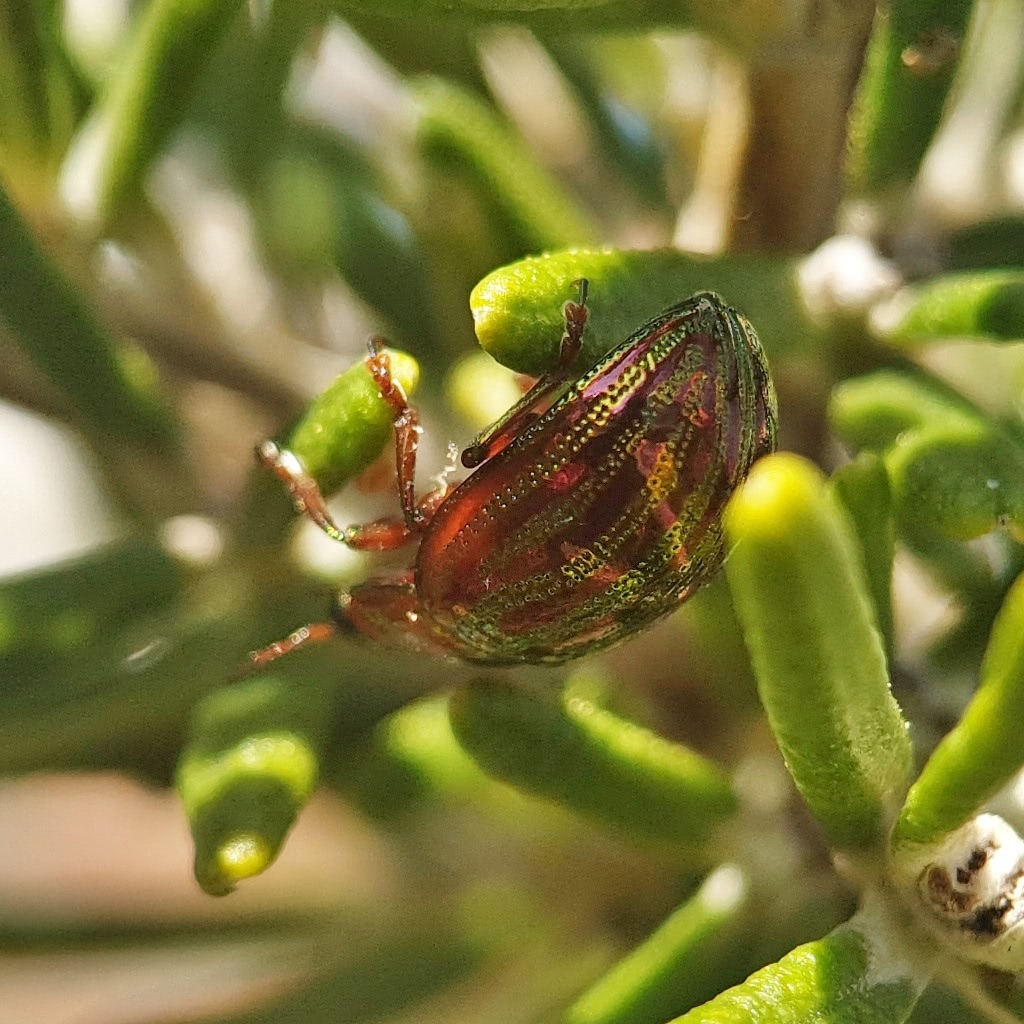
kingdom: Animalia
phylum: Arthropoda
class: Insecta
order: Coleoptera
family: Chrysomelidae
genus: Chrysolina
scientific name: Chrysolina americana
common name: Rosemary beetle
